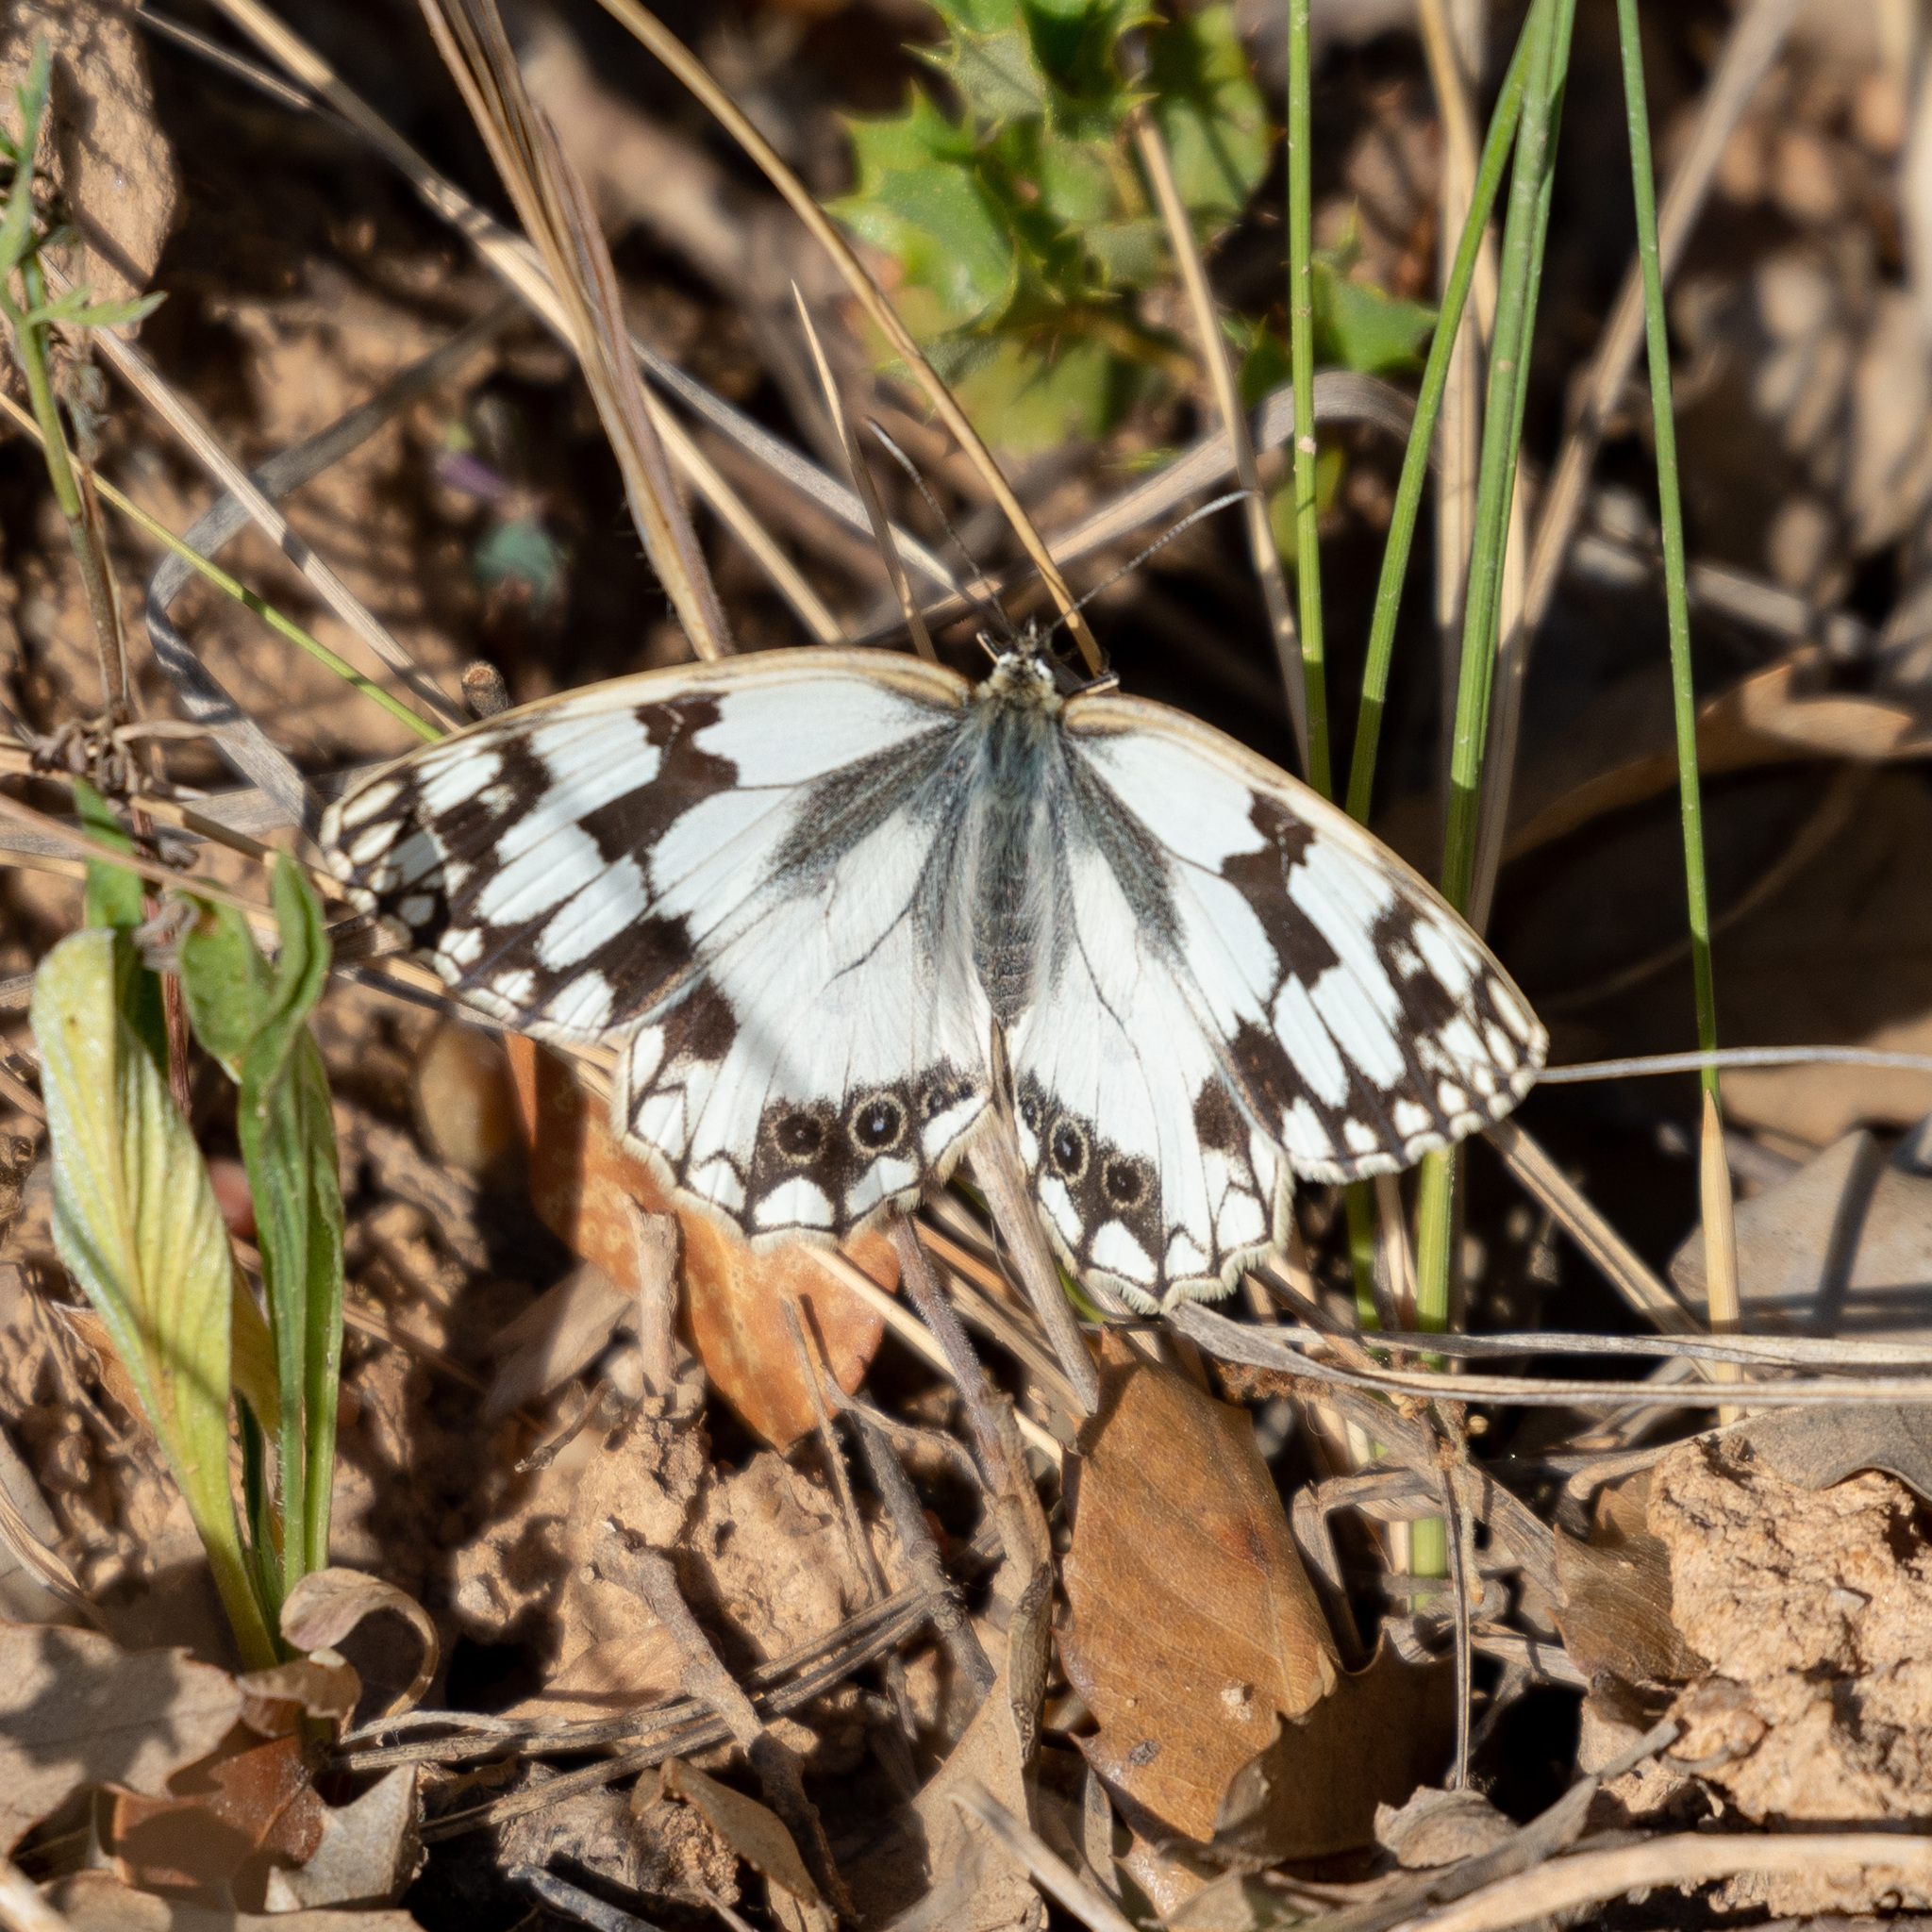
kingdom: Animalia
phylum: Arthropoda
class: Insecta
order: Lepidoptera
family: Nymphalidae
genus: Melanargia
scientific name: Melanargia lachesis
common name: Iberian marbled white
